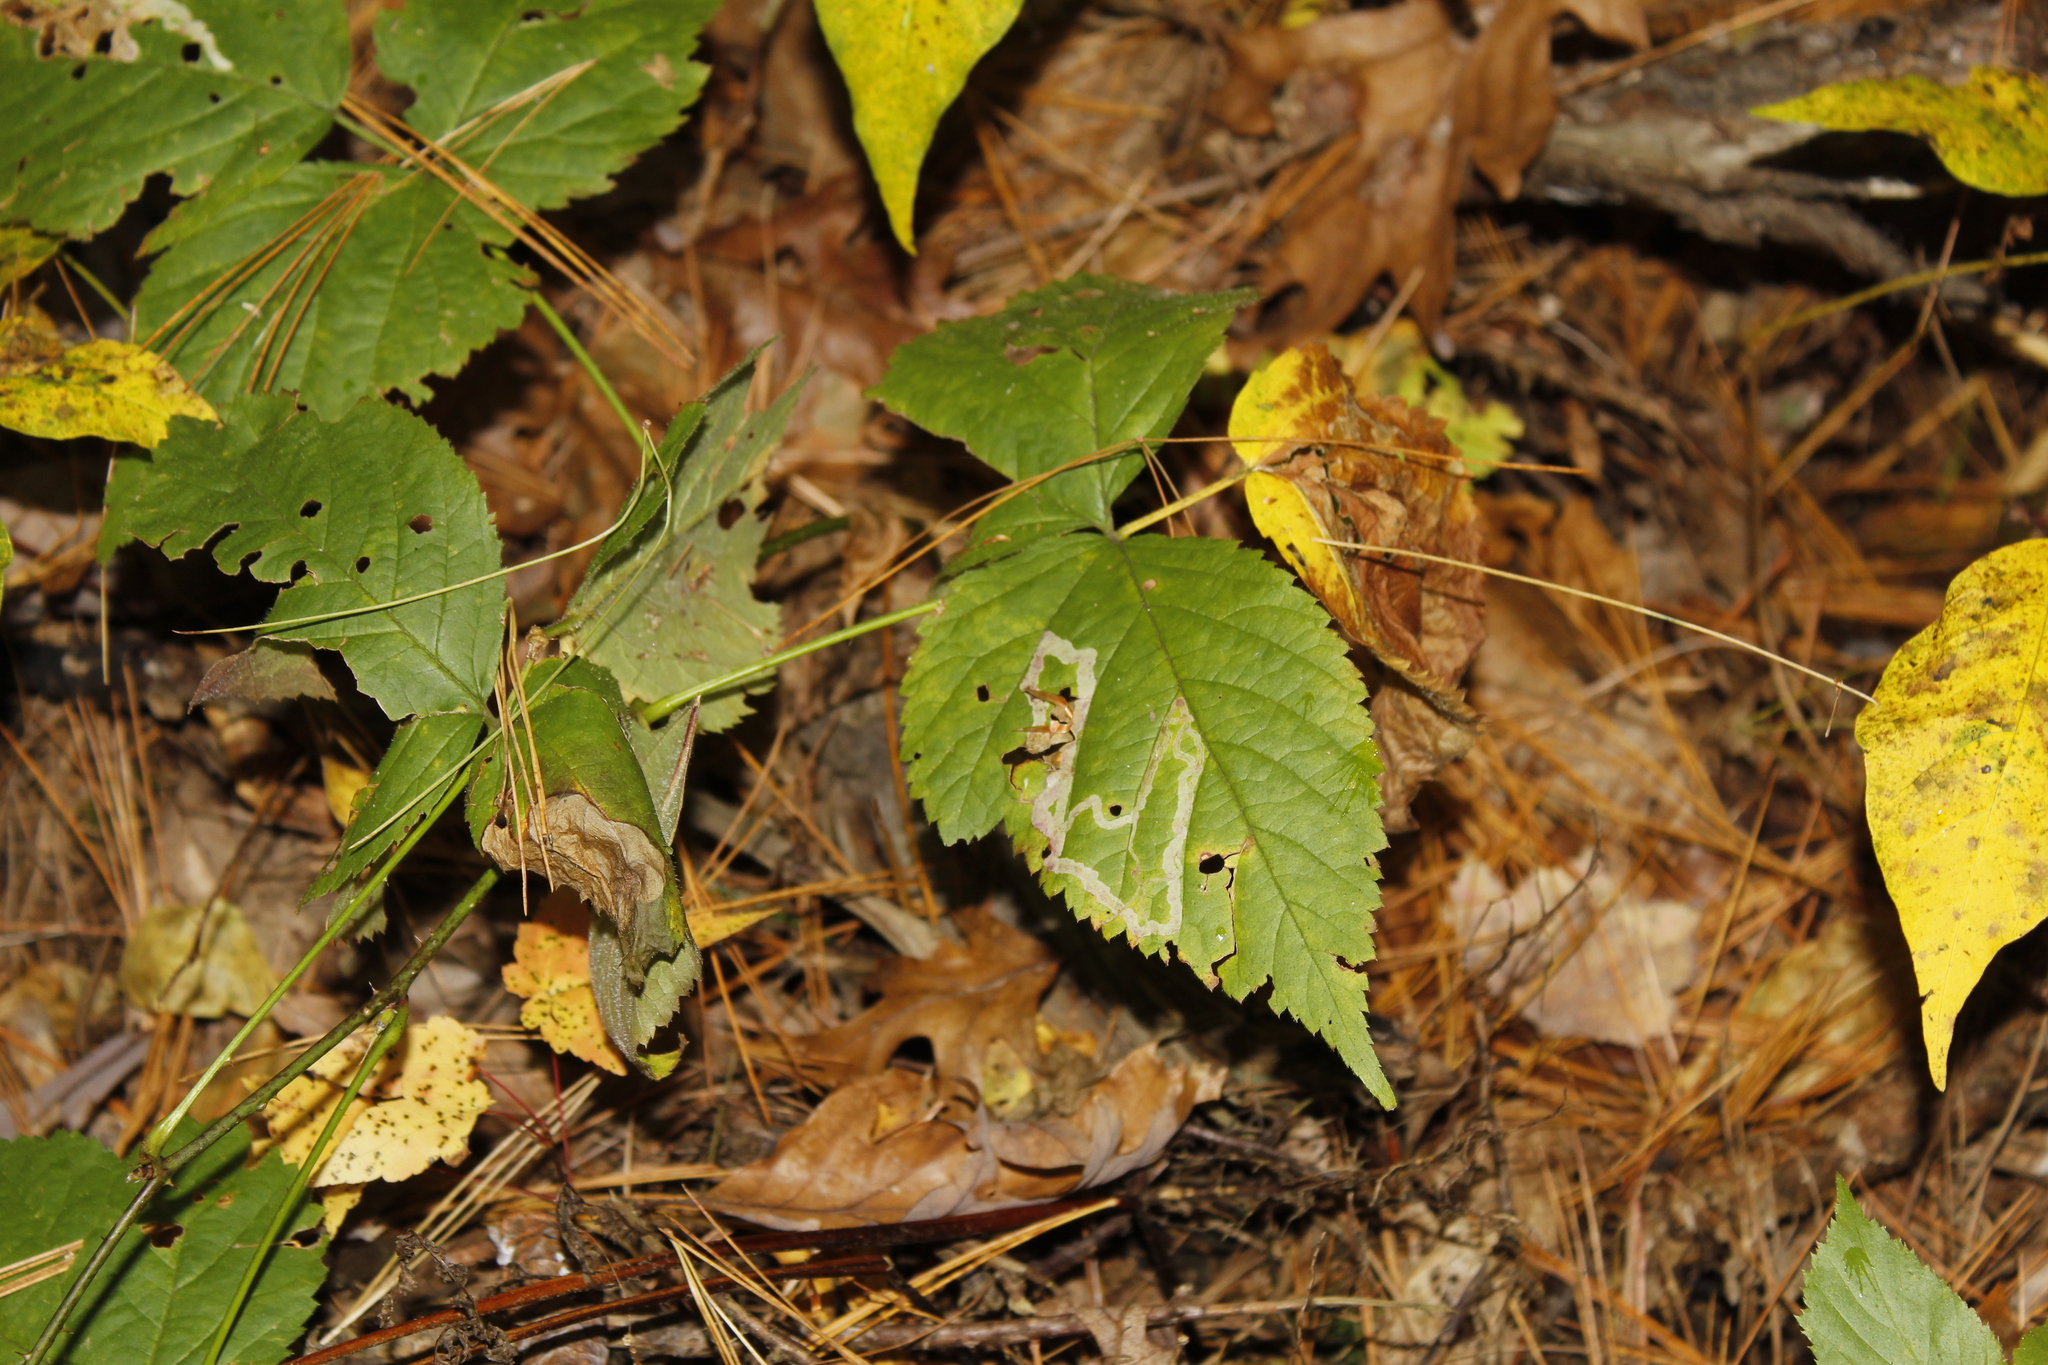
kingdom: Animalia
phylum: Arthropoda
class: Insecta
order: Diptera
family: Agromyzidae
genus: Agromyza
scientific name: Agromyza vockerothi
